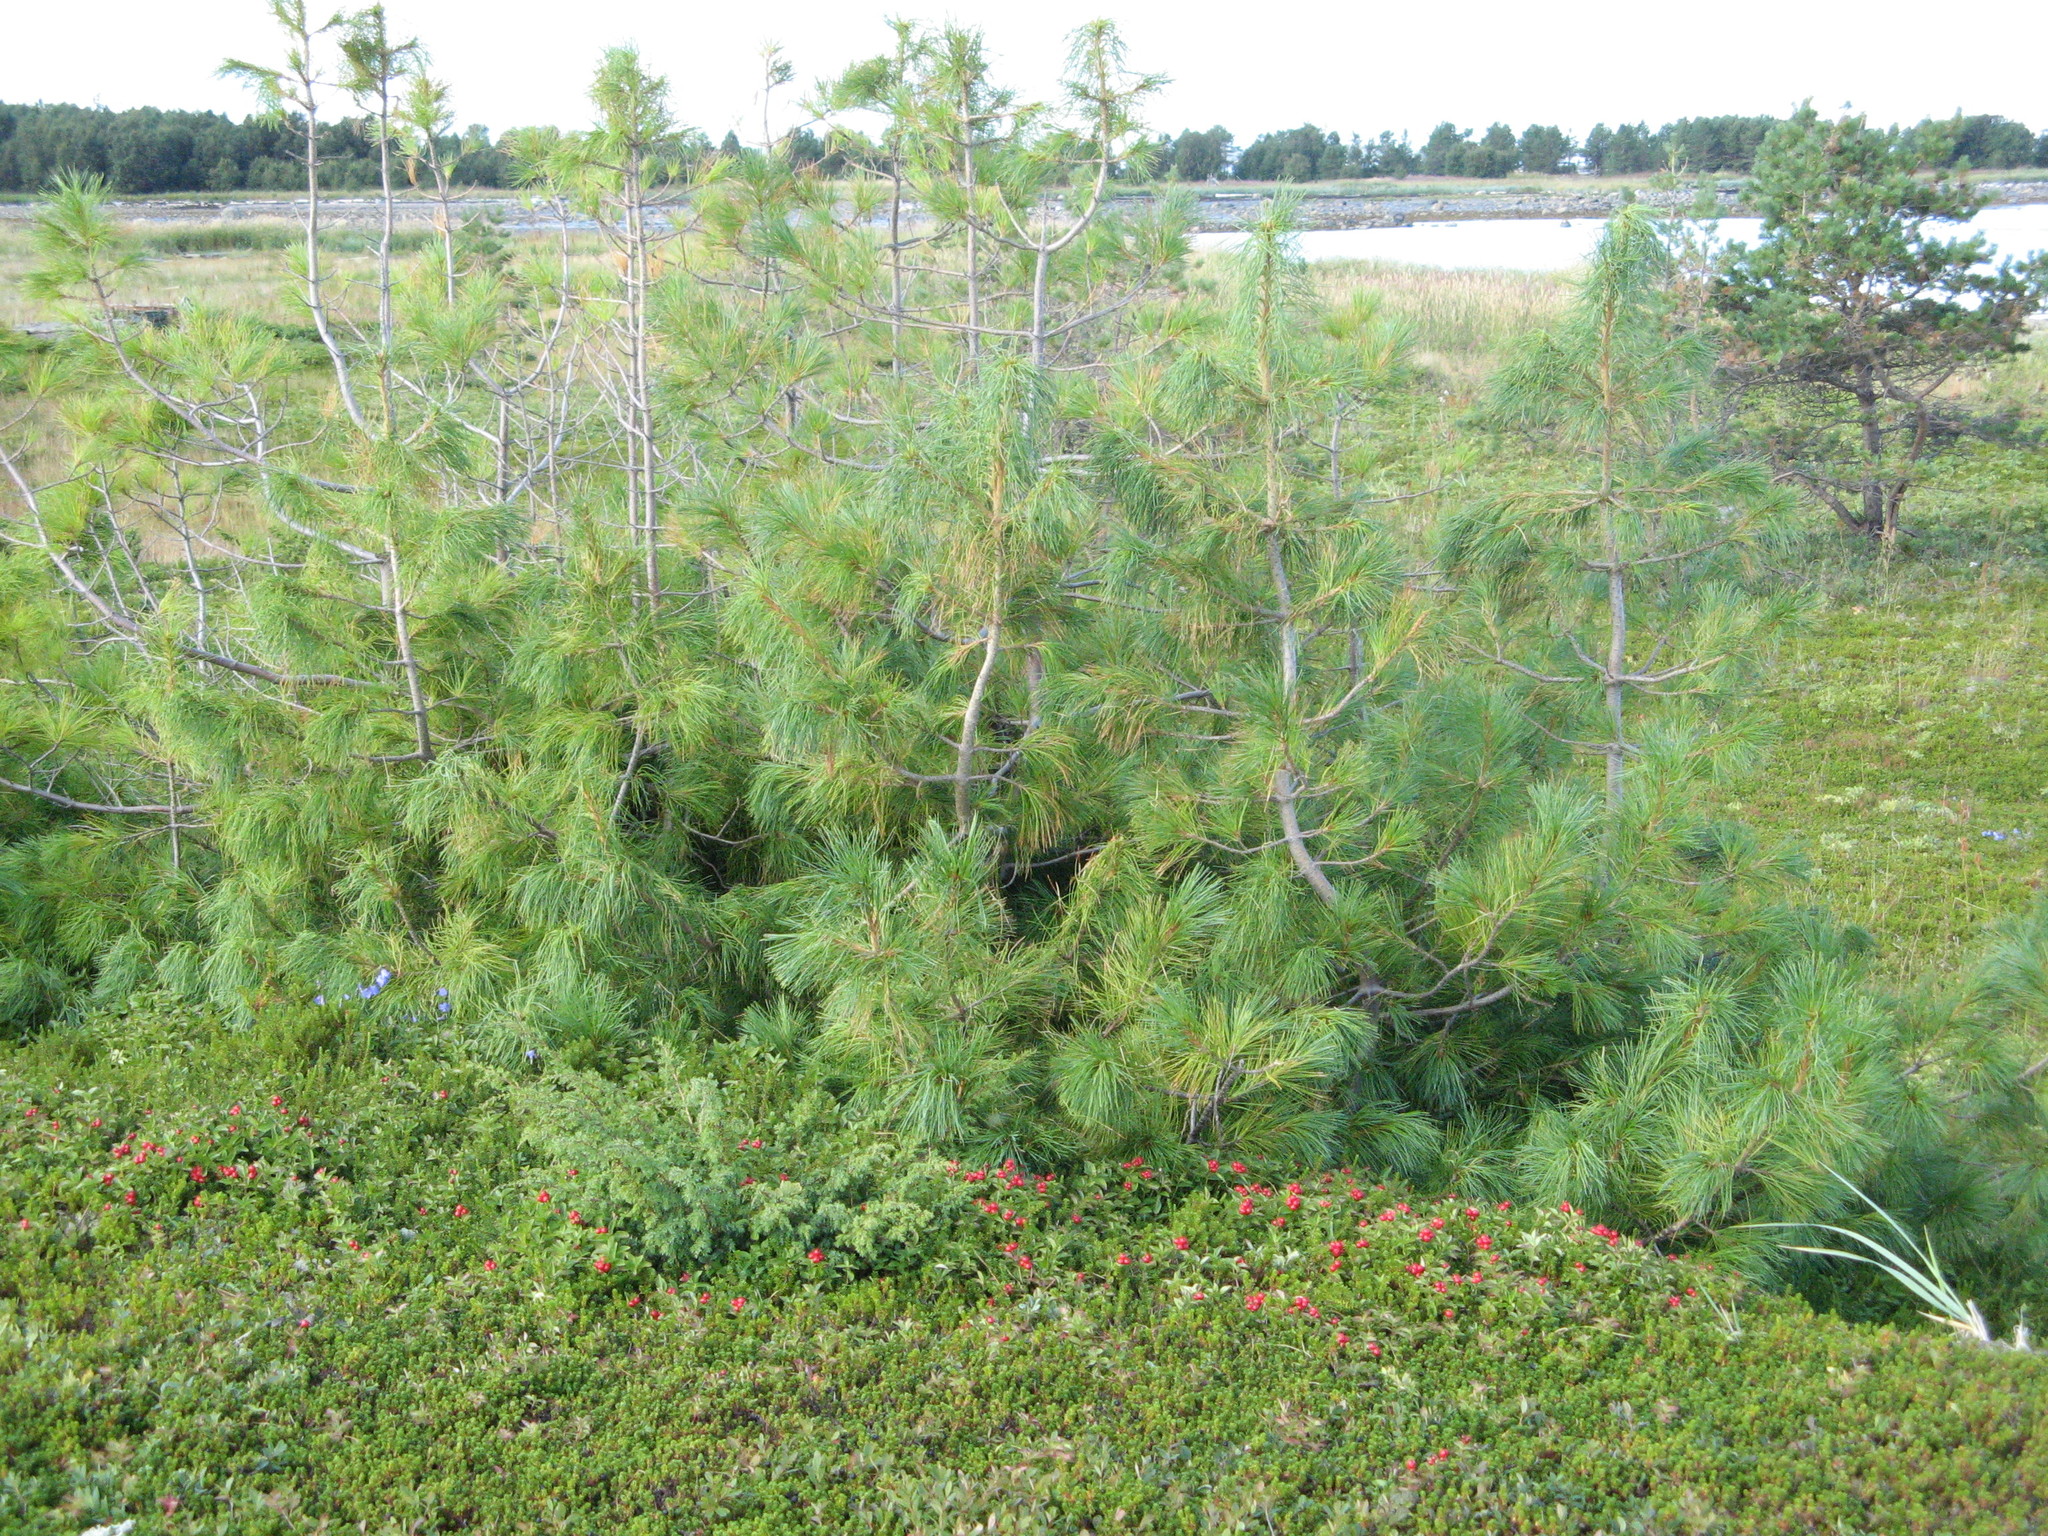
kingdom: Plantae
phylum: Tracheophyta
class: Pinopsida
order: Pinales
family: Pinaceae
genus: Pinus
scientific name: Pinus sibirica
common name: Siberian pine
